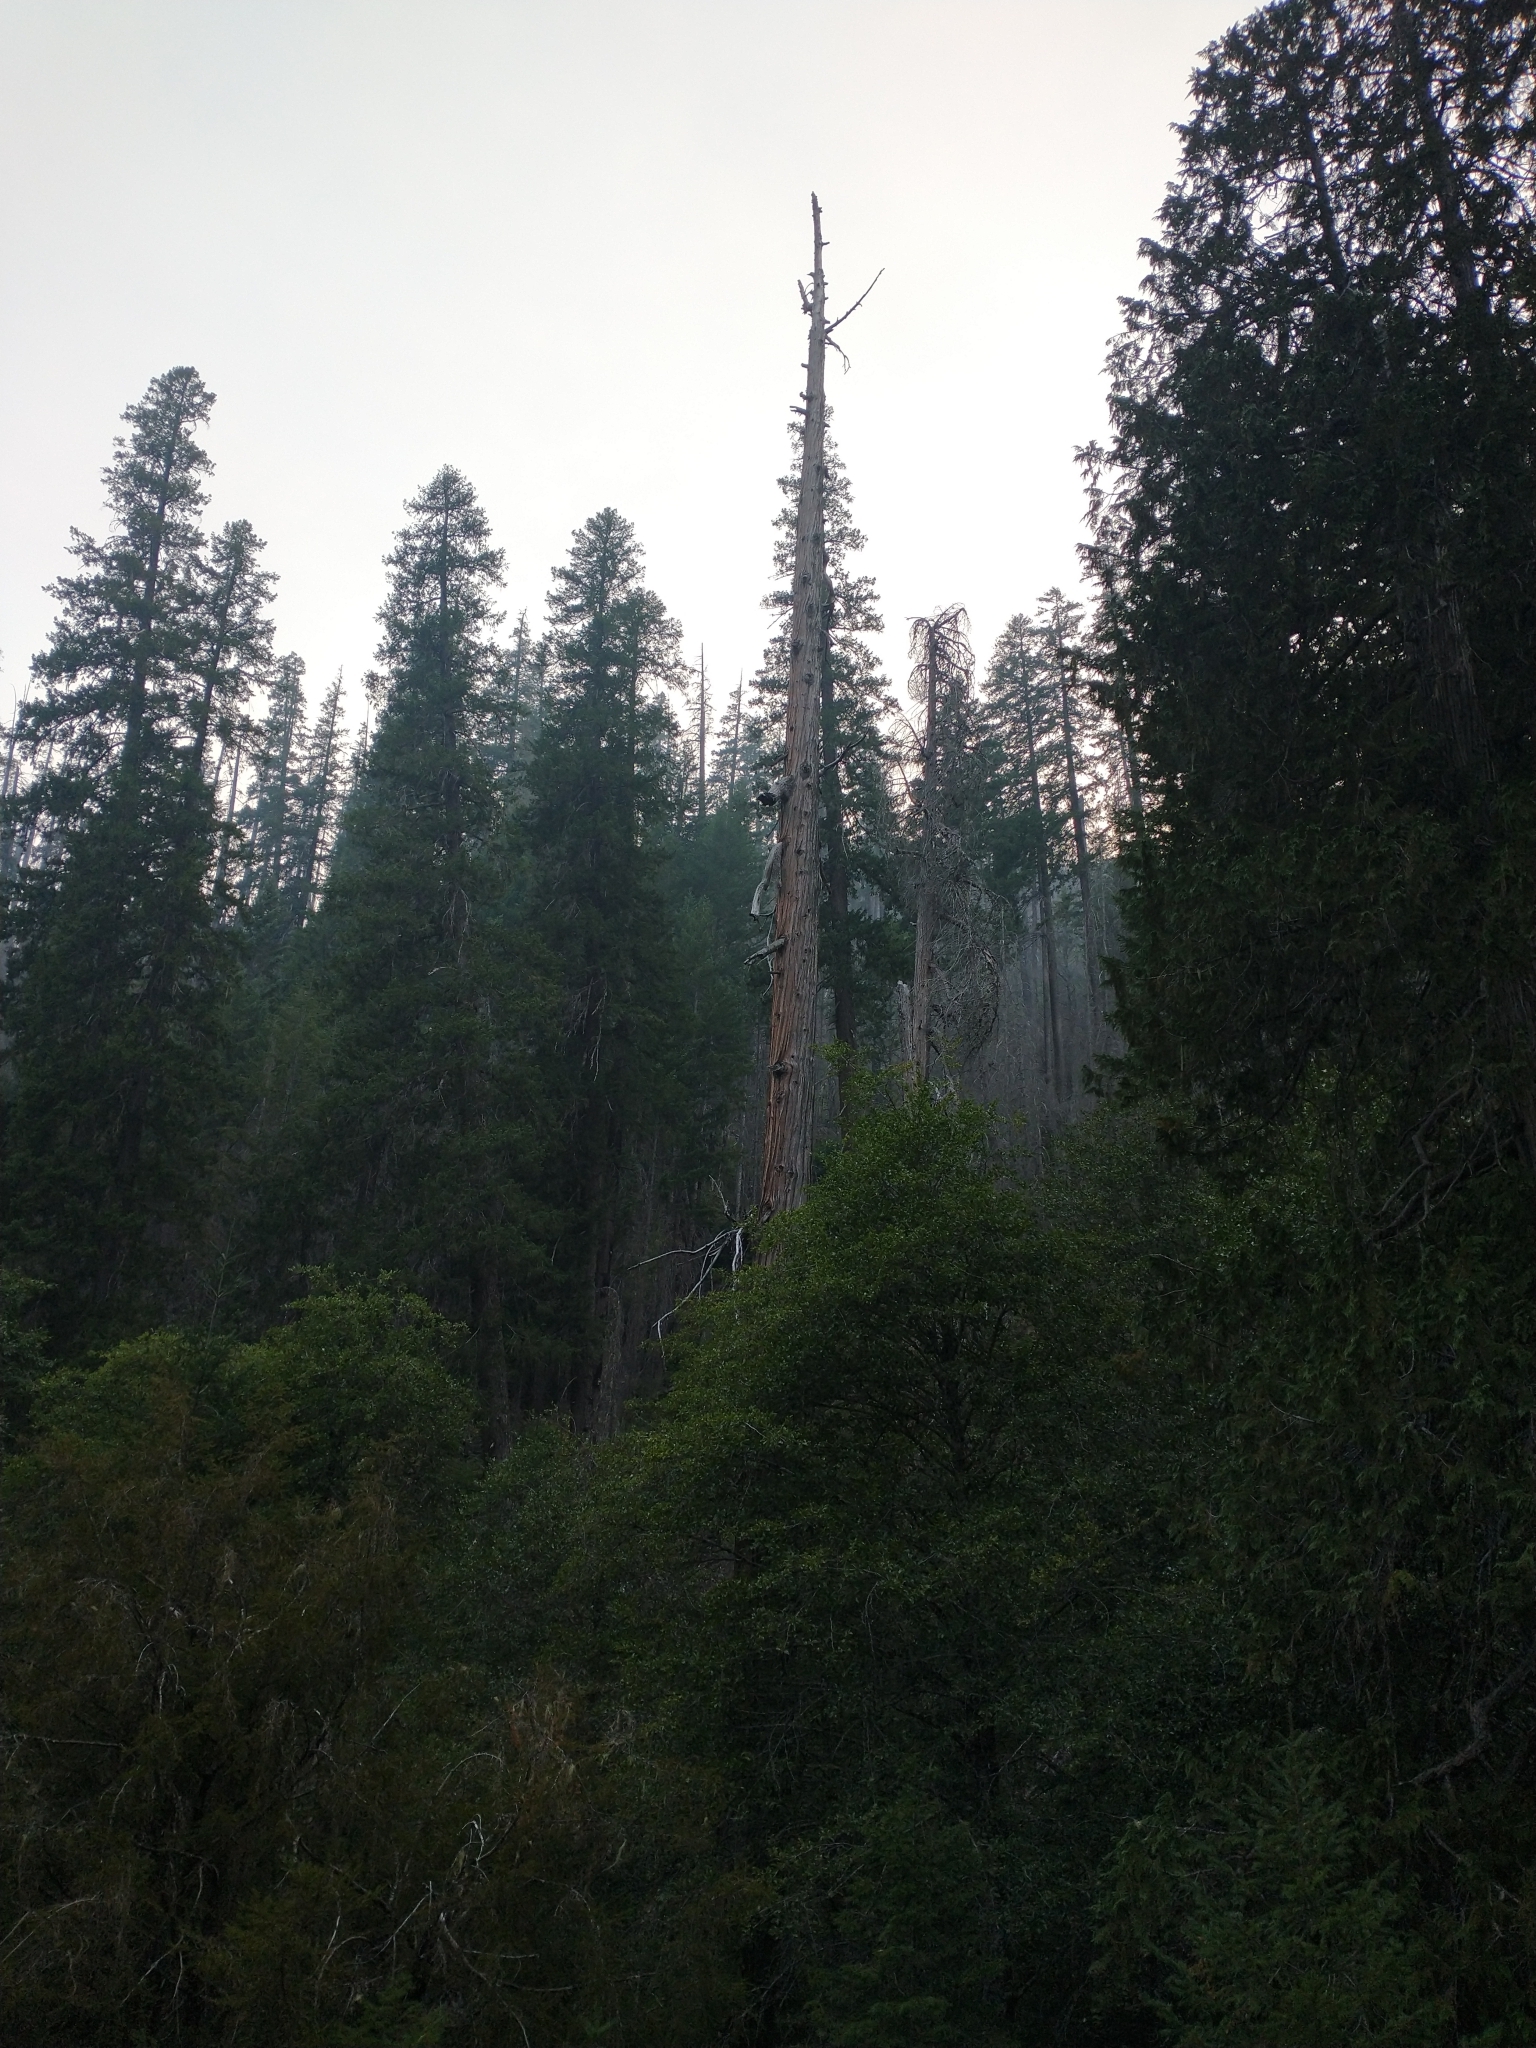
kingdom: Plantae
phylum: Tracheophyta
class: Pinopsida
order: Pinales
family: Cupressaceae
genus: Calocedrus
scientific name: Calocedrus decurrens
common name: Californian incense-cedar
